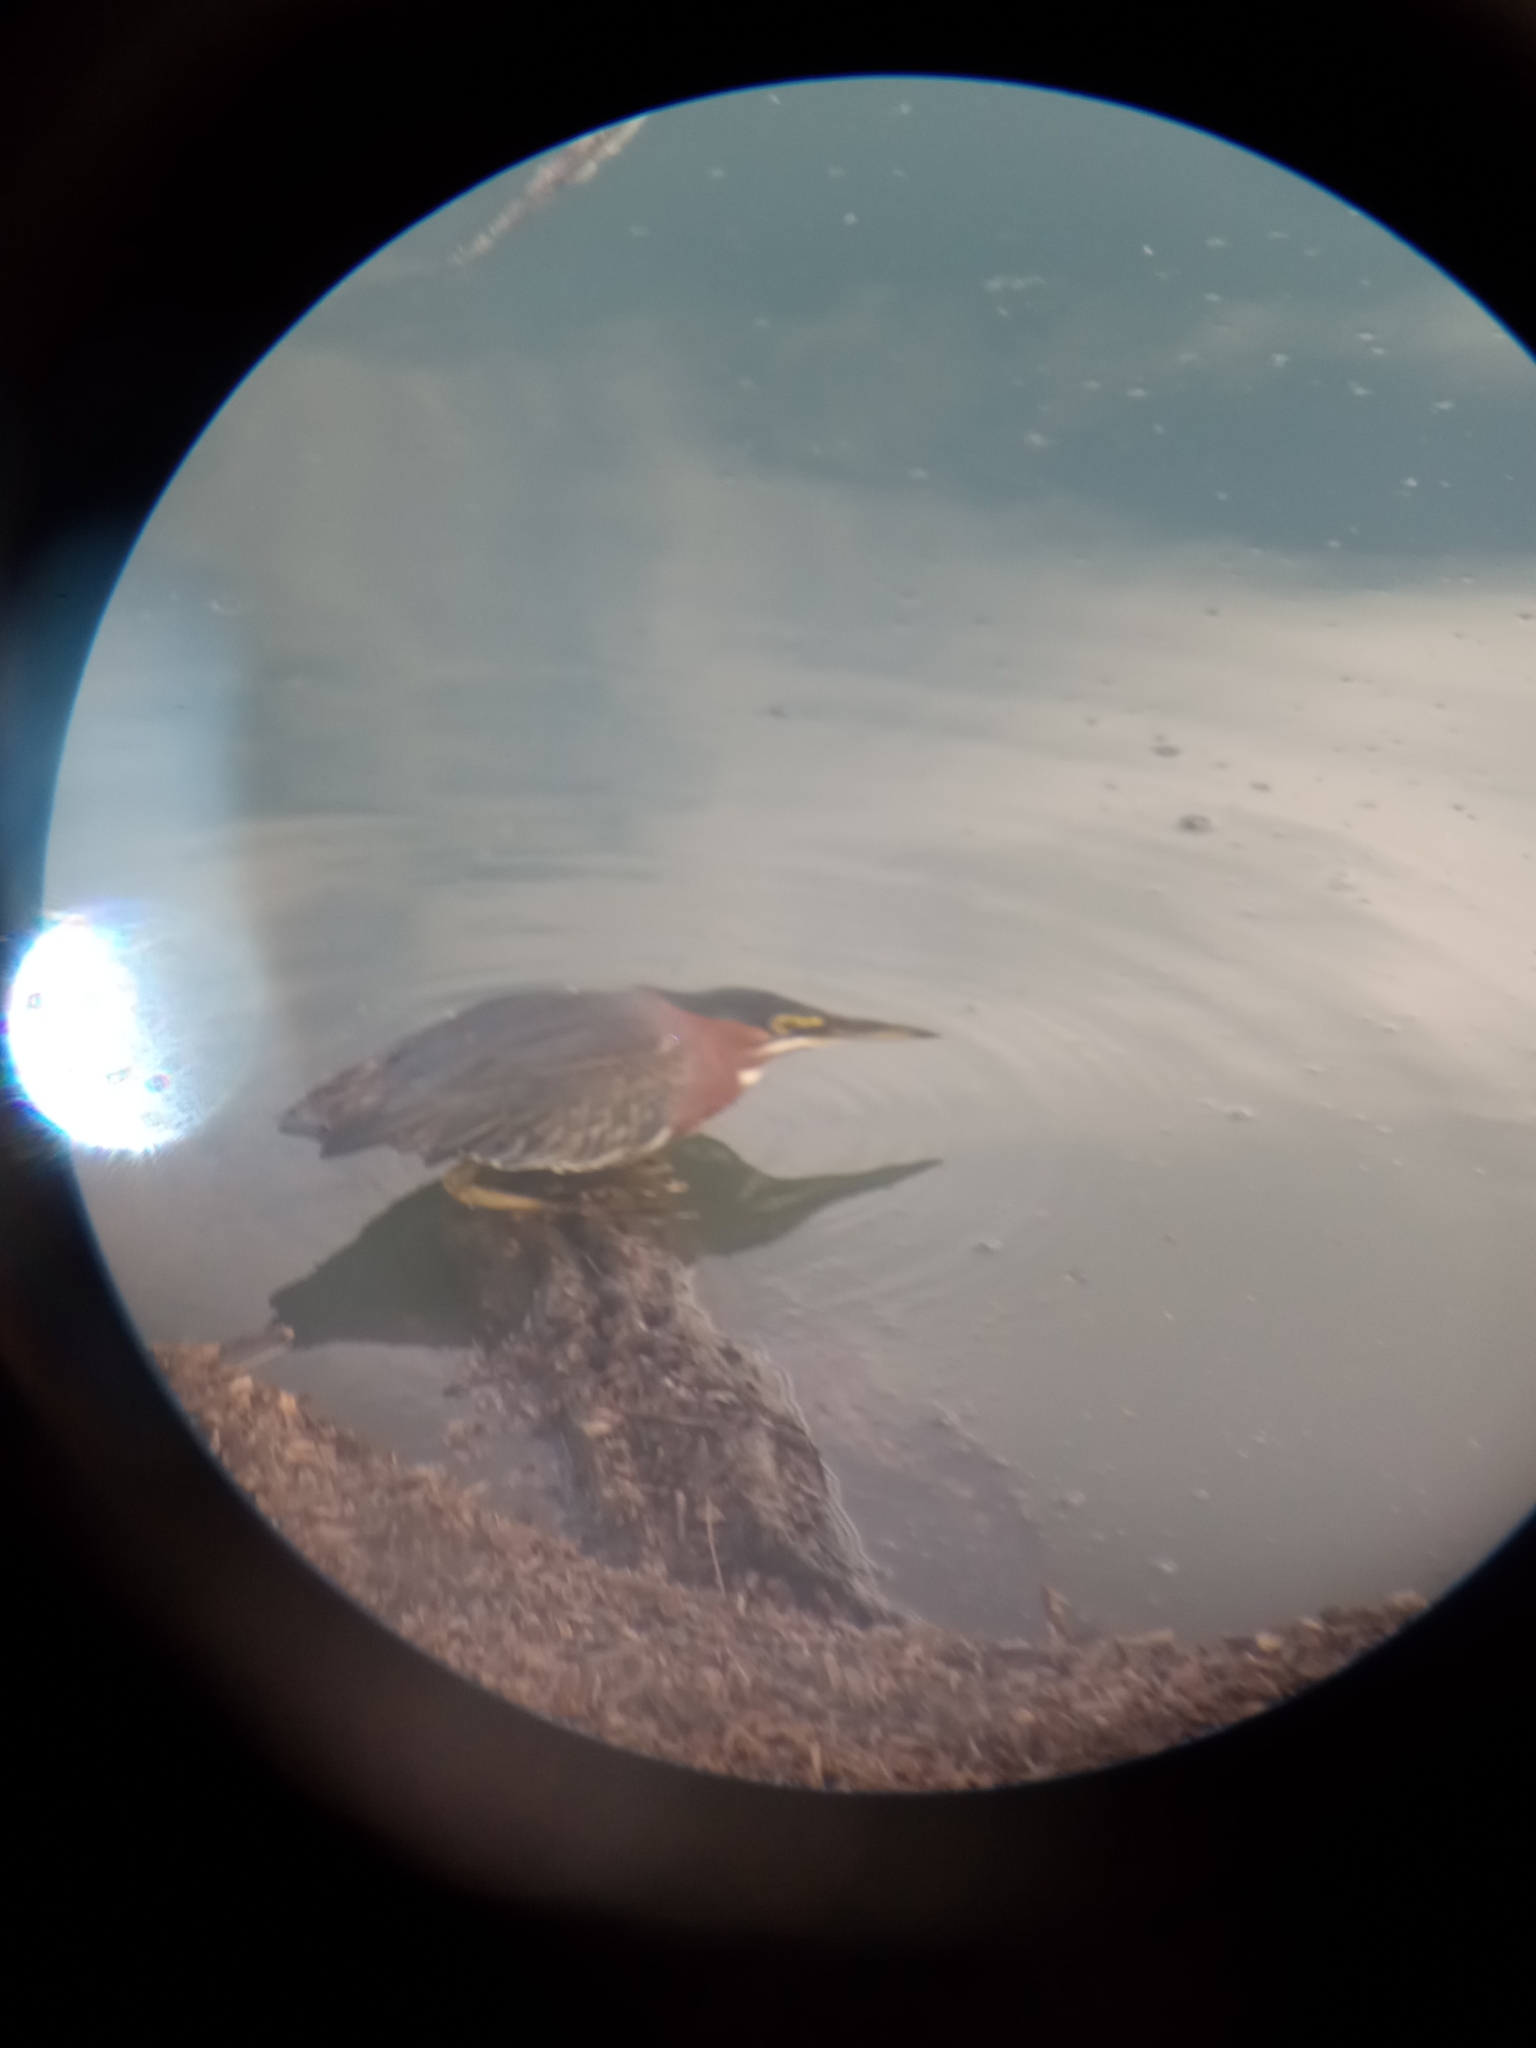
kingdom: Animalia
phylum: Chordata
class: Aves
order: Pelecaniformes
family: Ardeidae
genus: Butorides
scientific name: Butorides virescens
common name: Green heron
